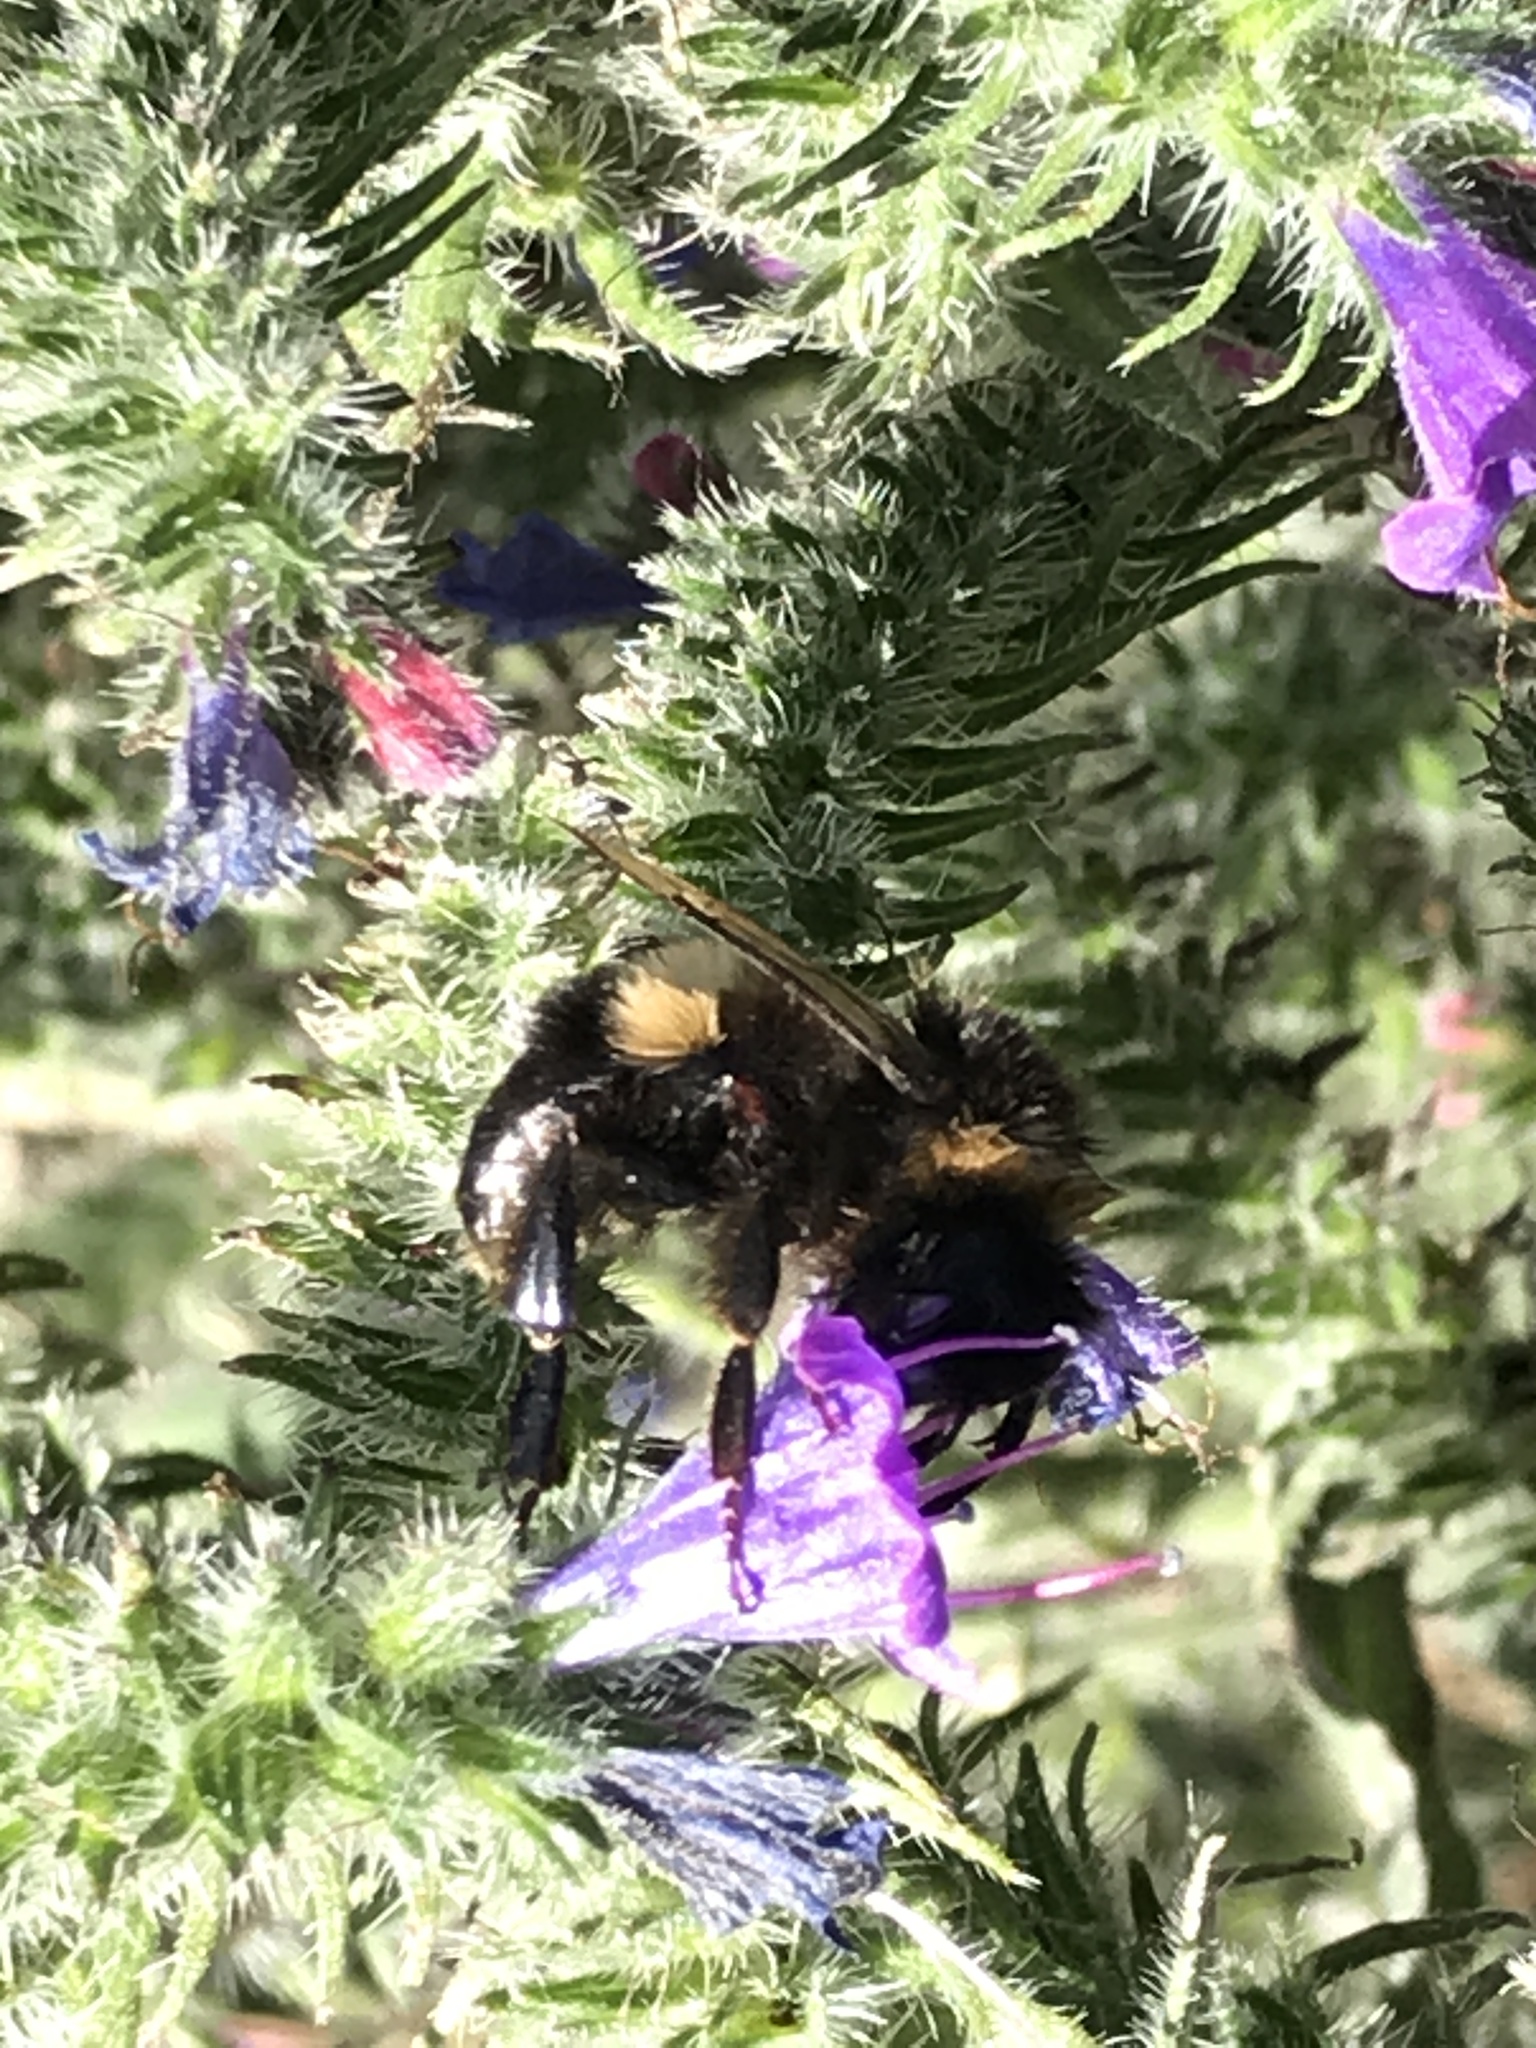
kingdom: Animalia
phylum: Arthropoda
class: Insecta
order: Hymenoptera
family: Apidae
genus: Bombus
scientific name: Bombus terrestris
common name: Buff-tailed bumblebee
